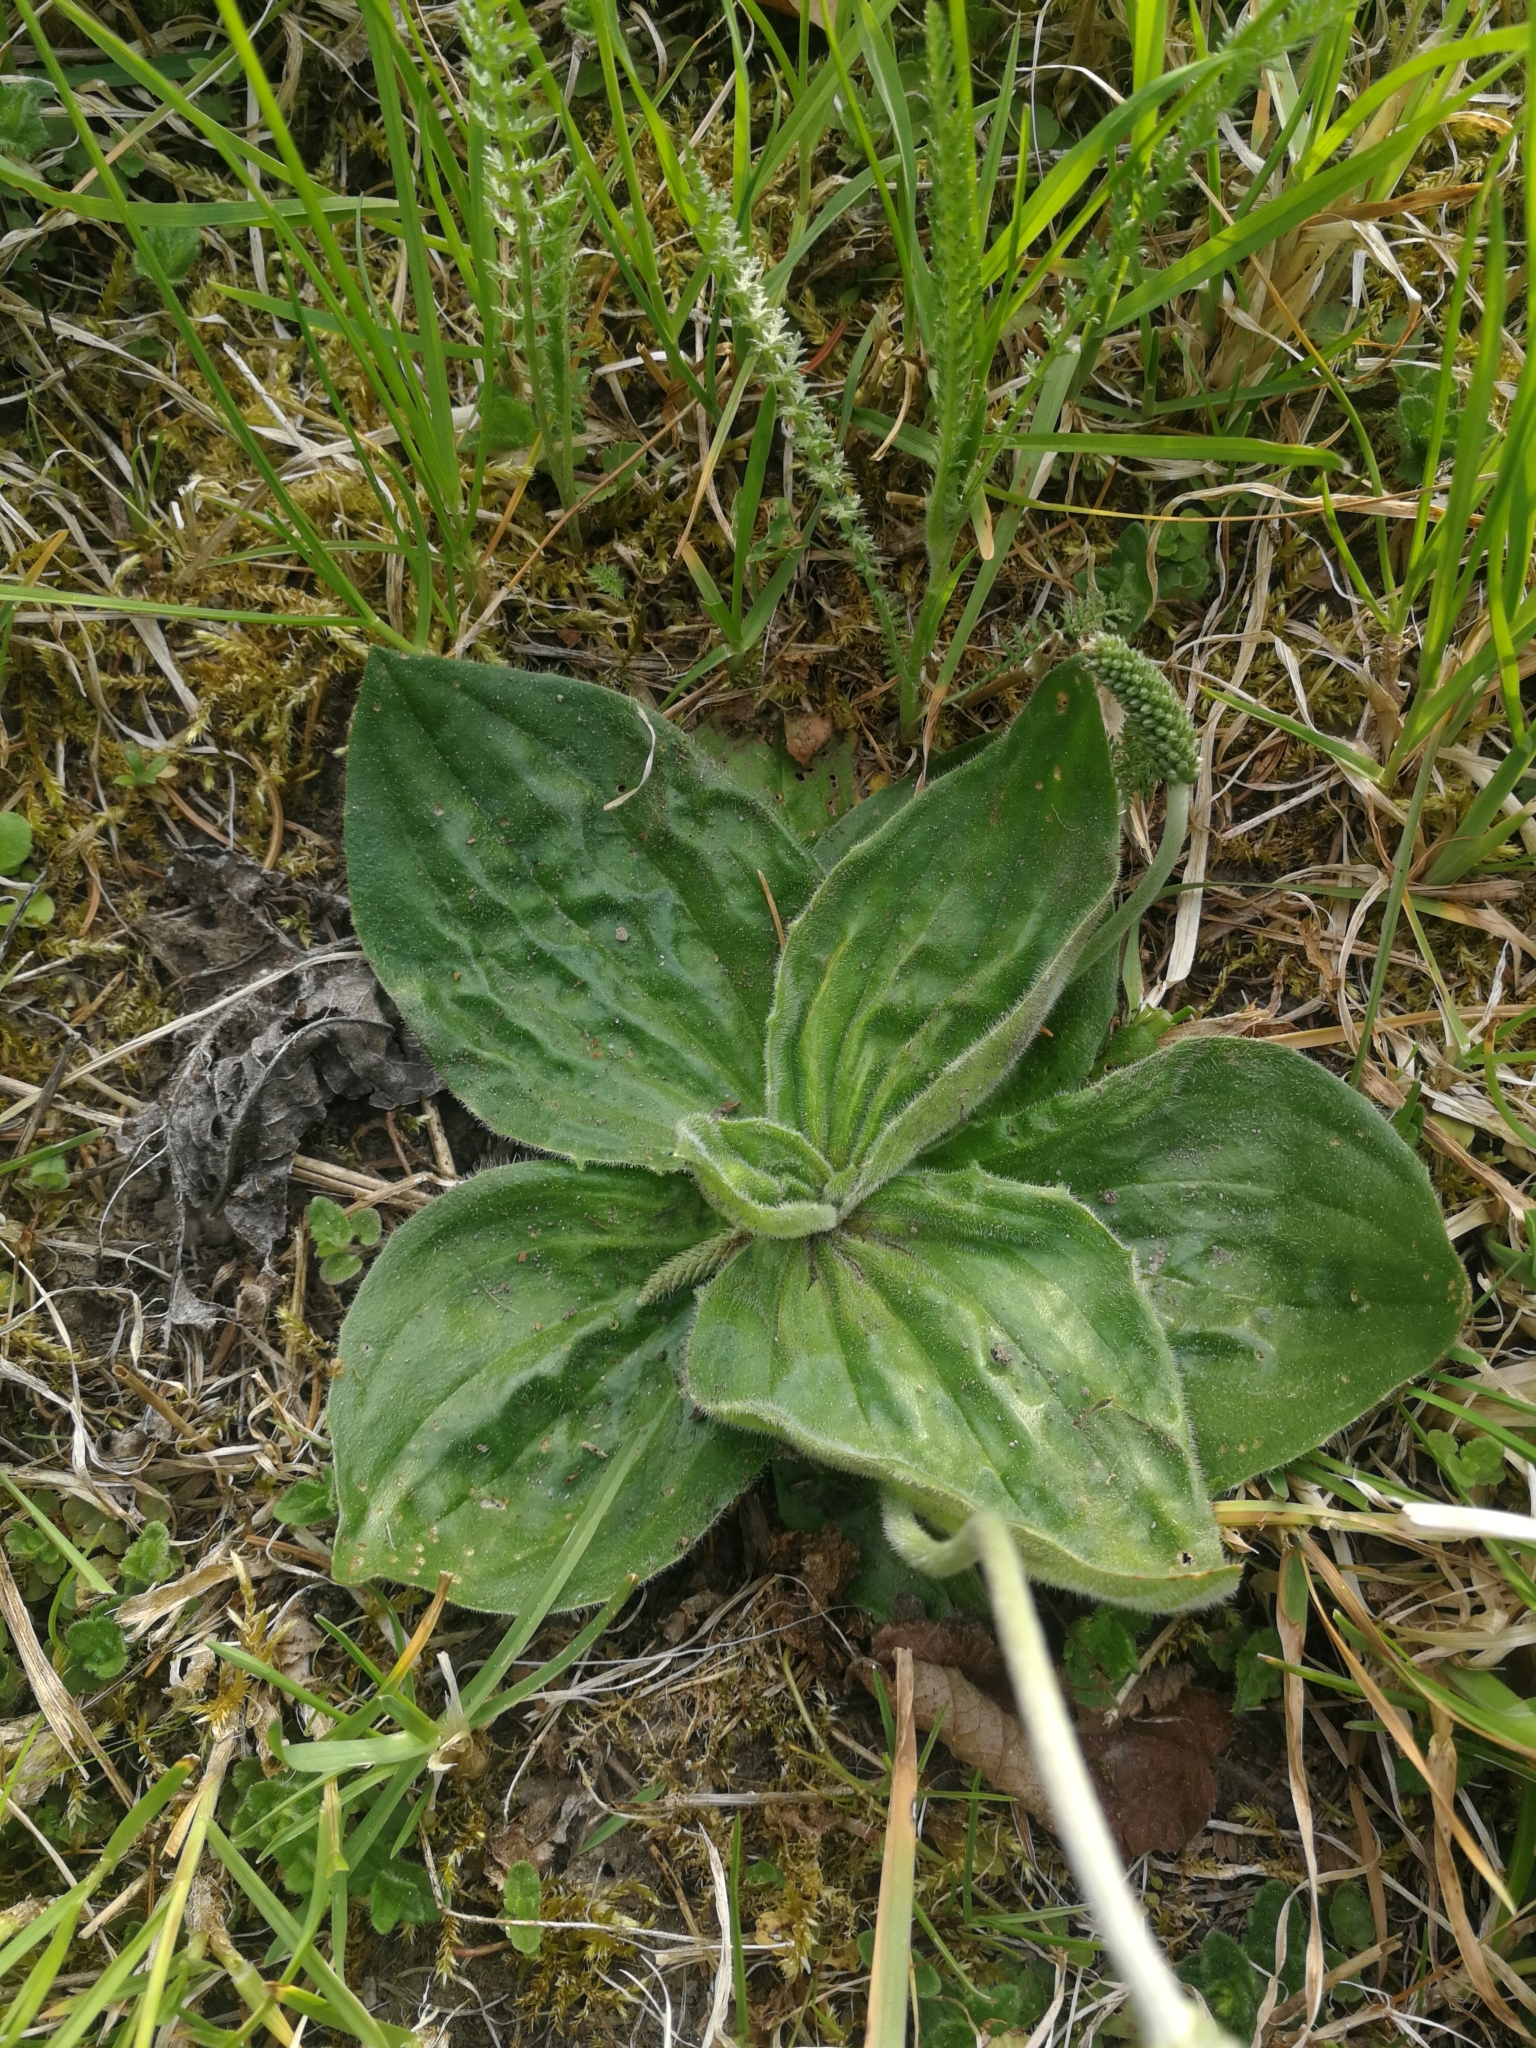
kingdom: Plantae
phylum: Tracheophyta
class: Magnoliopsida
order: Lamiales
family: Plantaginaceae
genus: Plantago
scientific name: Plantago media
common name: Hoary plantain
